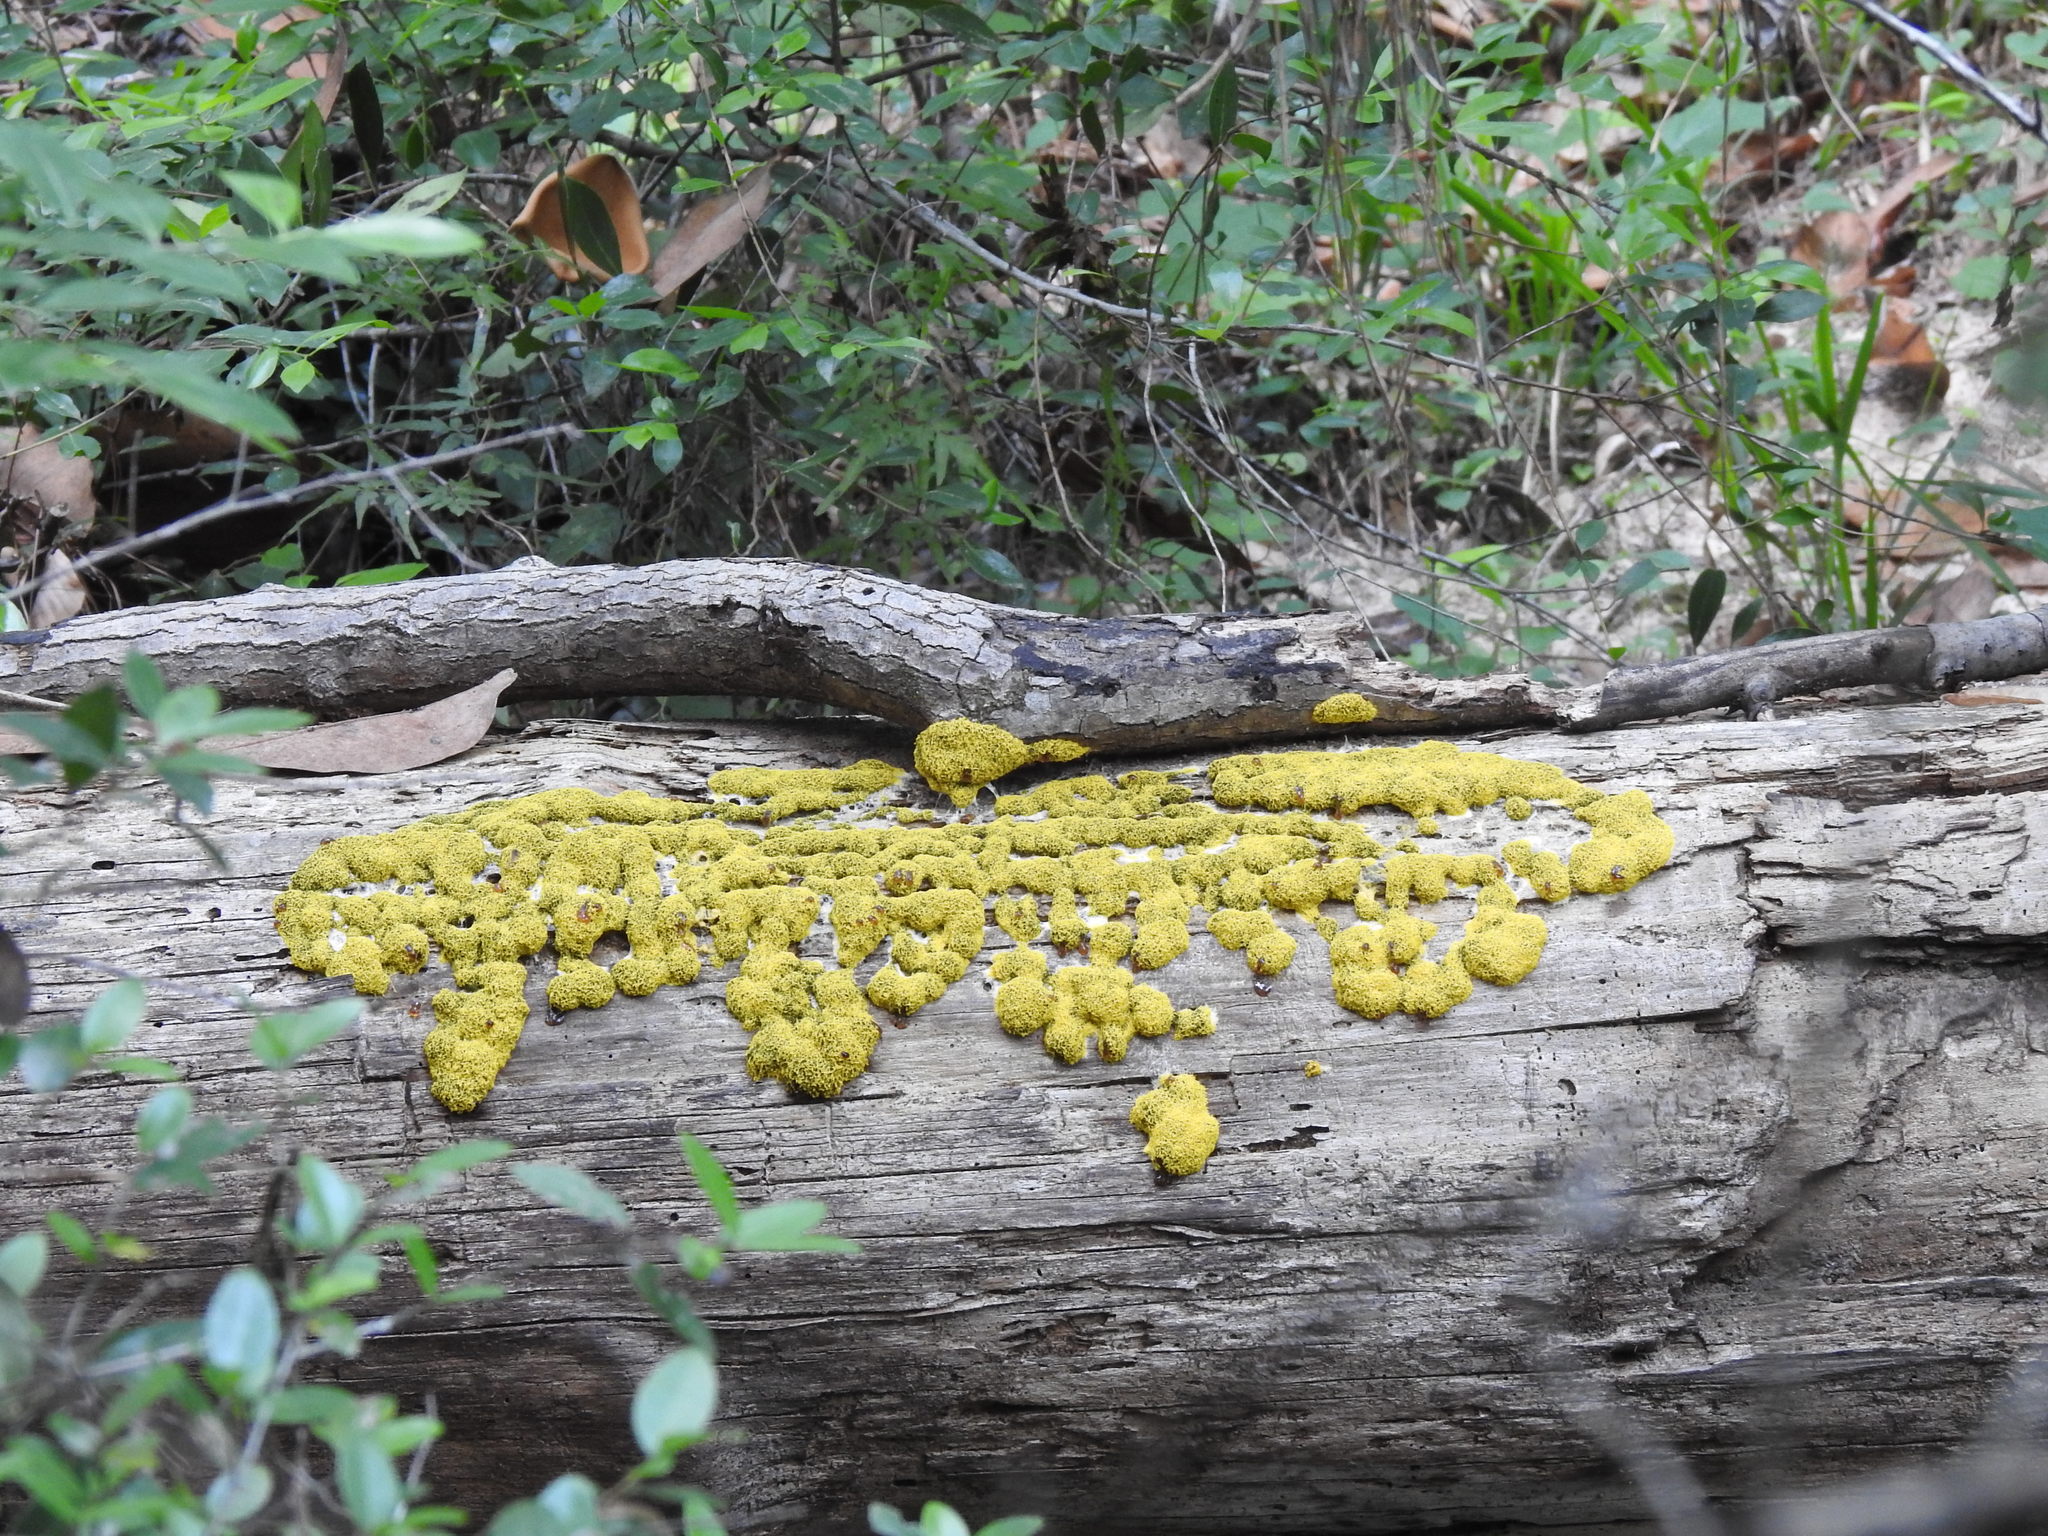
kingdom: Protozoa
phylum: Mycetozoa
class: Myxomycetes
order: Physarales
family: Physaraceae
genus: Fuligo
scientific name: Fuligo septica
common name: Dog vomit slime mold
